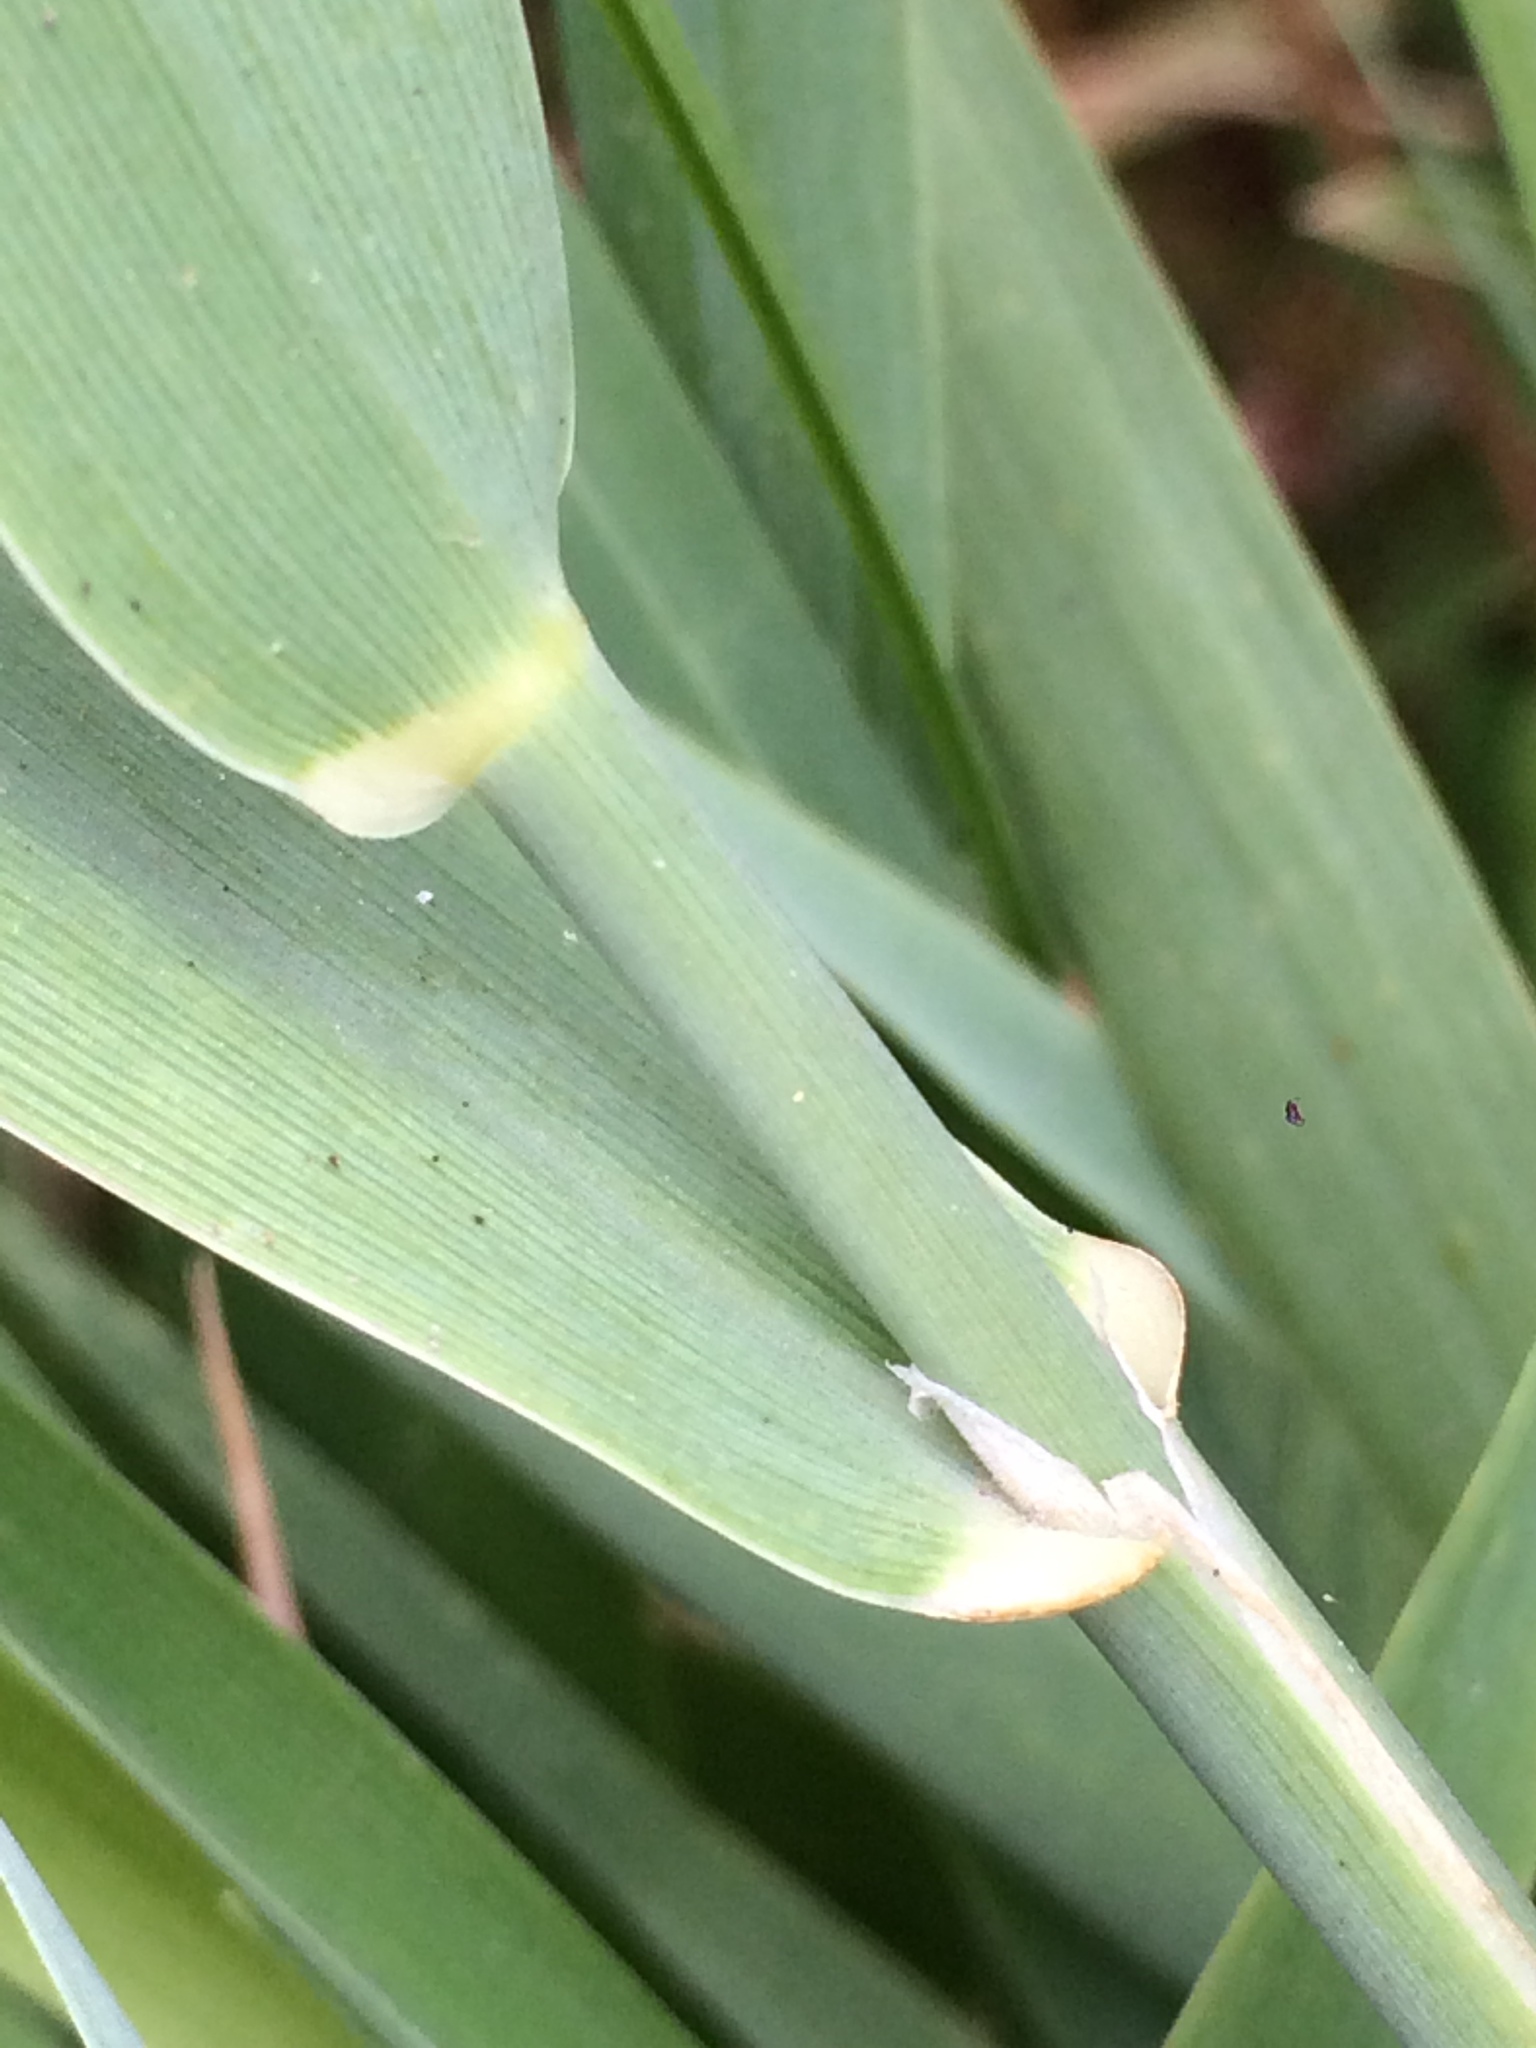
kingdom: Plantae
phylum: Tracheophyta
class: Liliopsida
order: Poales
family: Poaceae
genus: Phalaris
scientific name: Phalaris arundinacea
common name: Reed canary-grass
